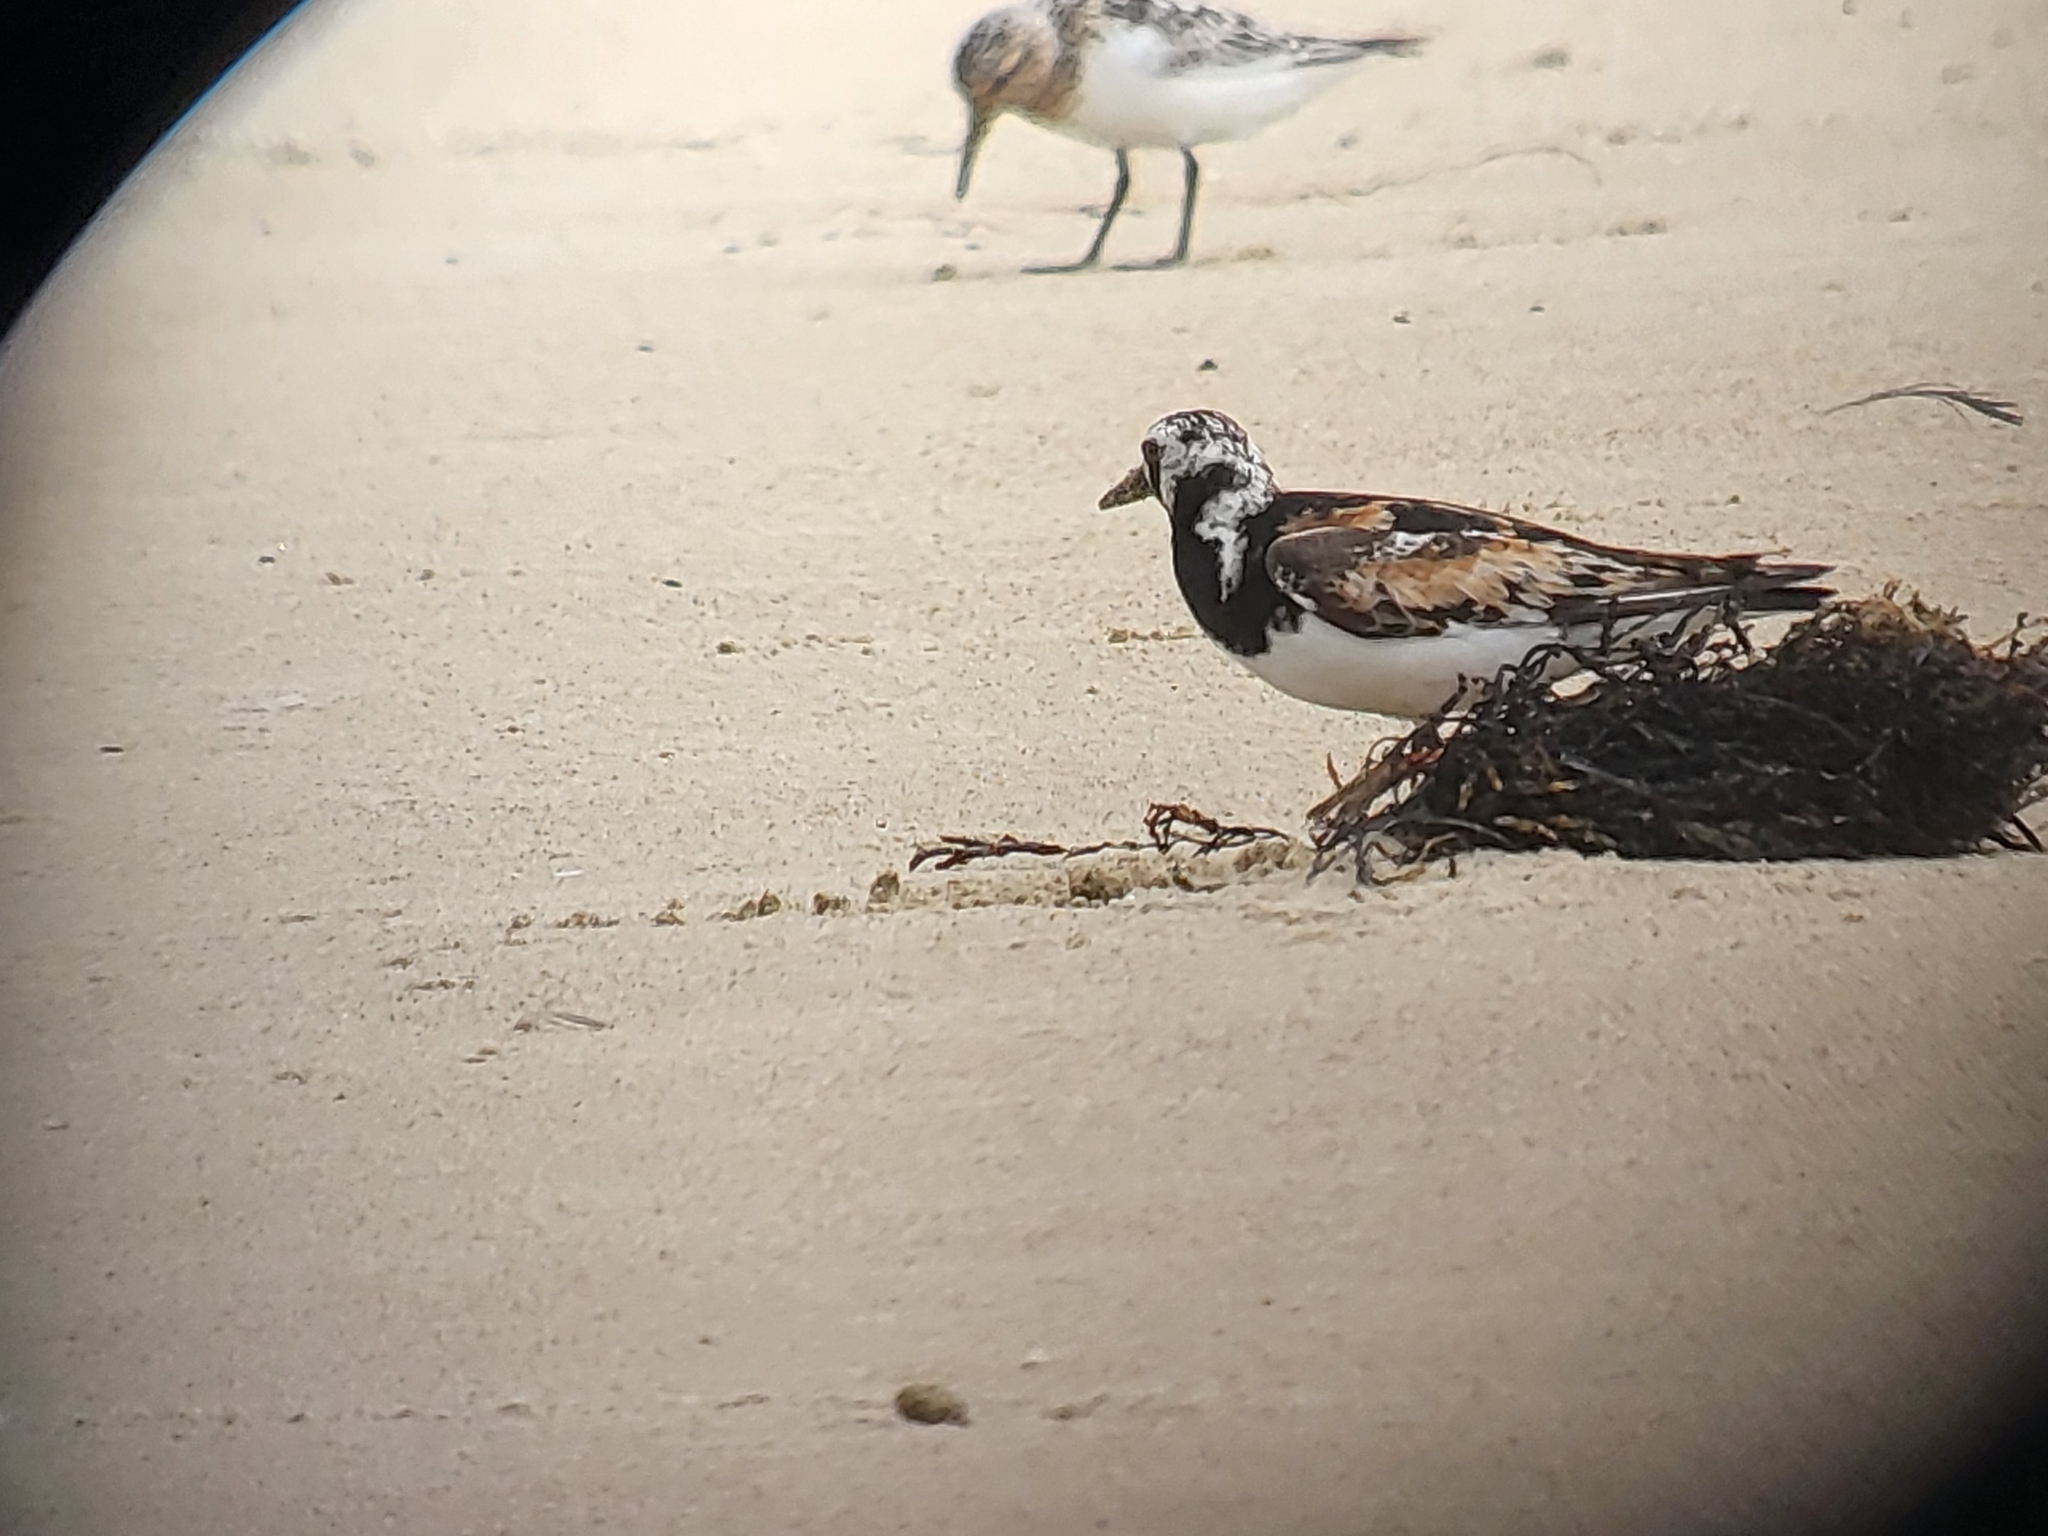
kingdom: Animalia
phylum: Chordata
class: Aves
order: Charadriiformes
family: Scolopacidae
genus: Arenaria
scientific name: Arenaria interpres
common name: Ruddy turnstone
